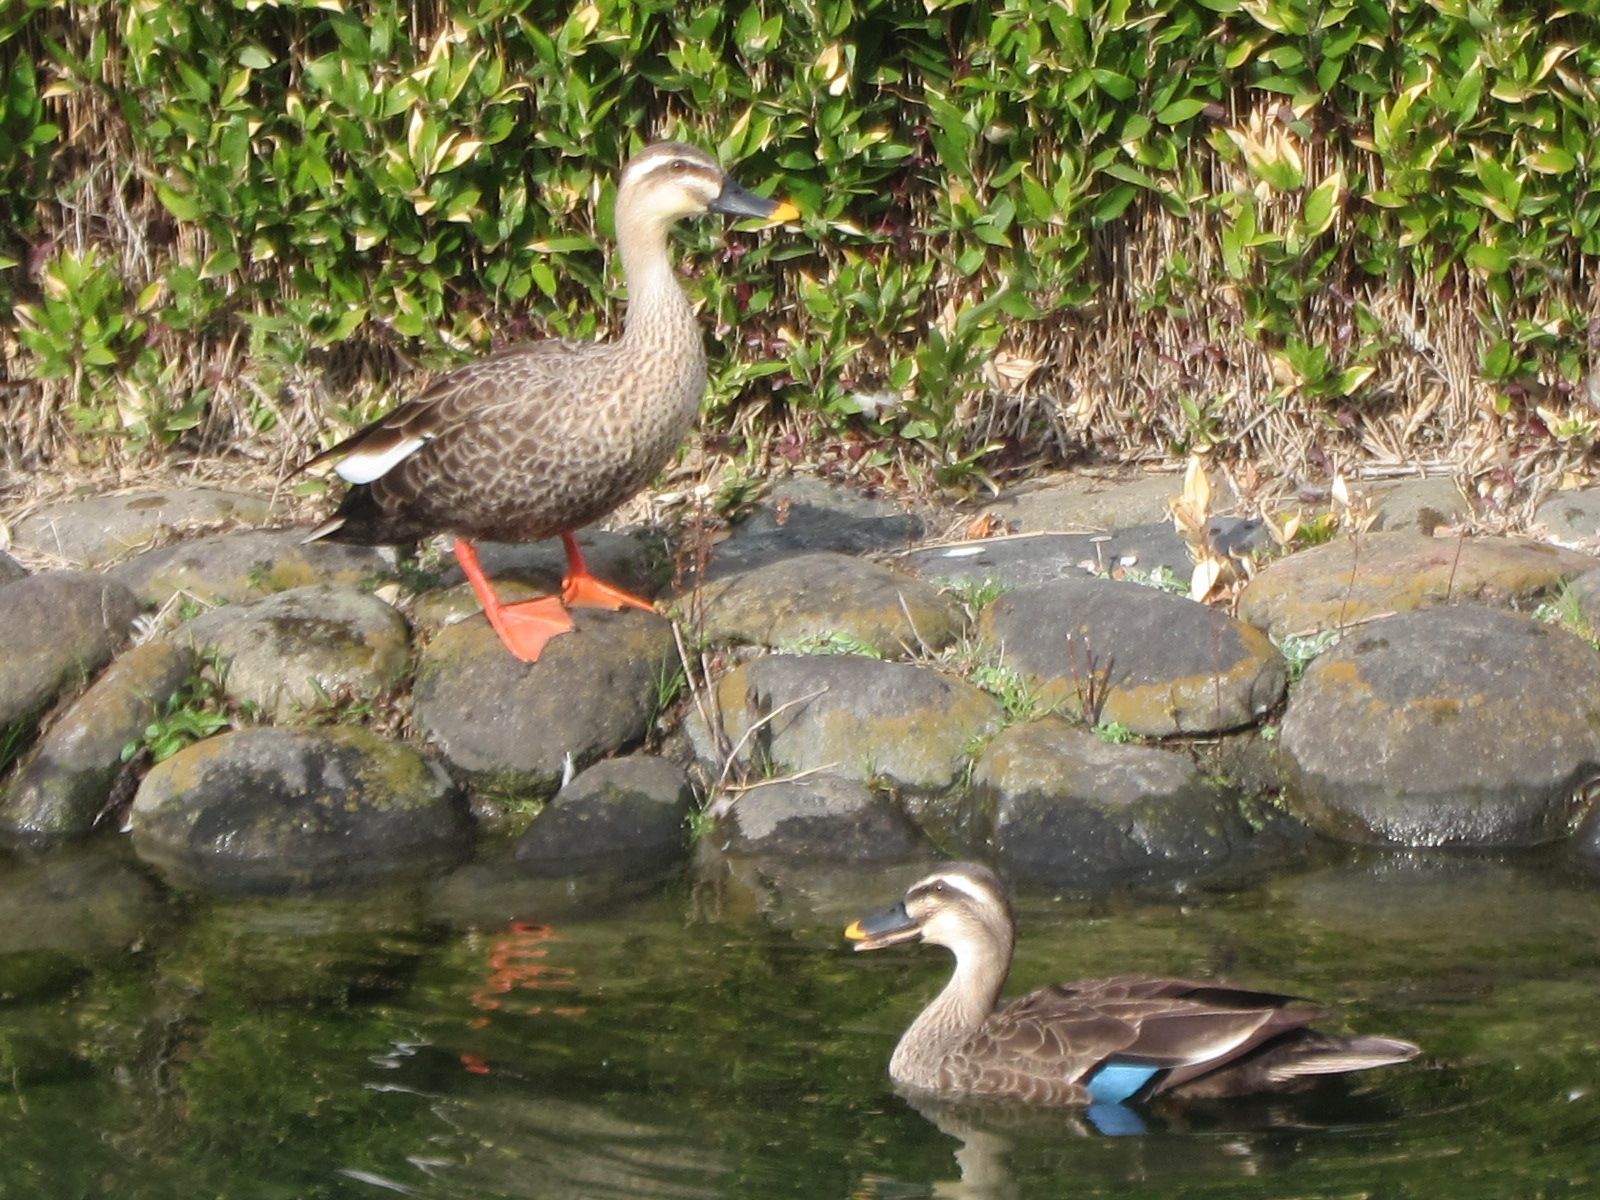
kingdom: Animalia
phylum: Chordata
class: Aves
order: Anseriformes
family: Anatidae
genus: Anas
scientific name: Anas zonorhyncha
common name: Eastern spot-billed duck
